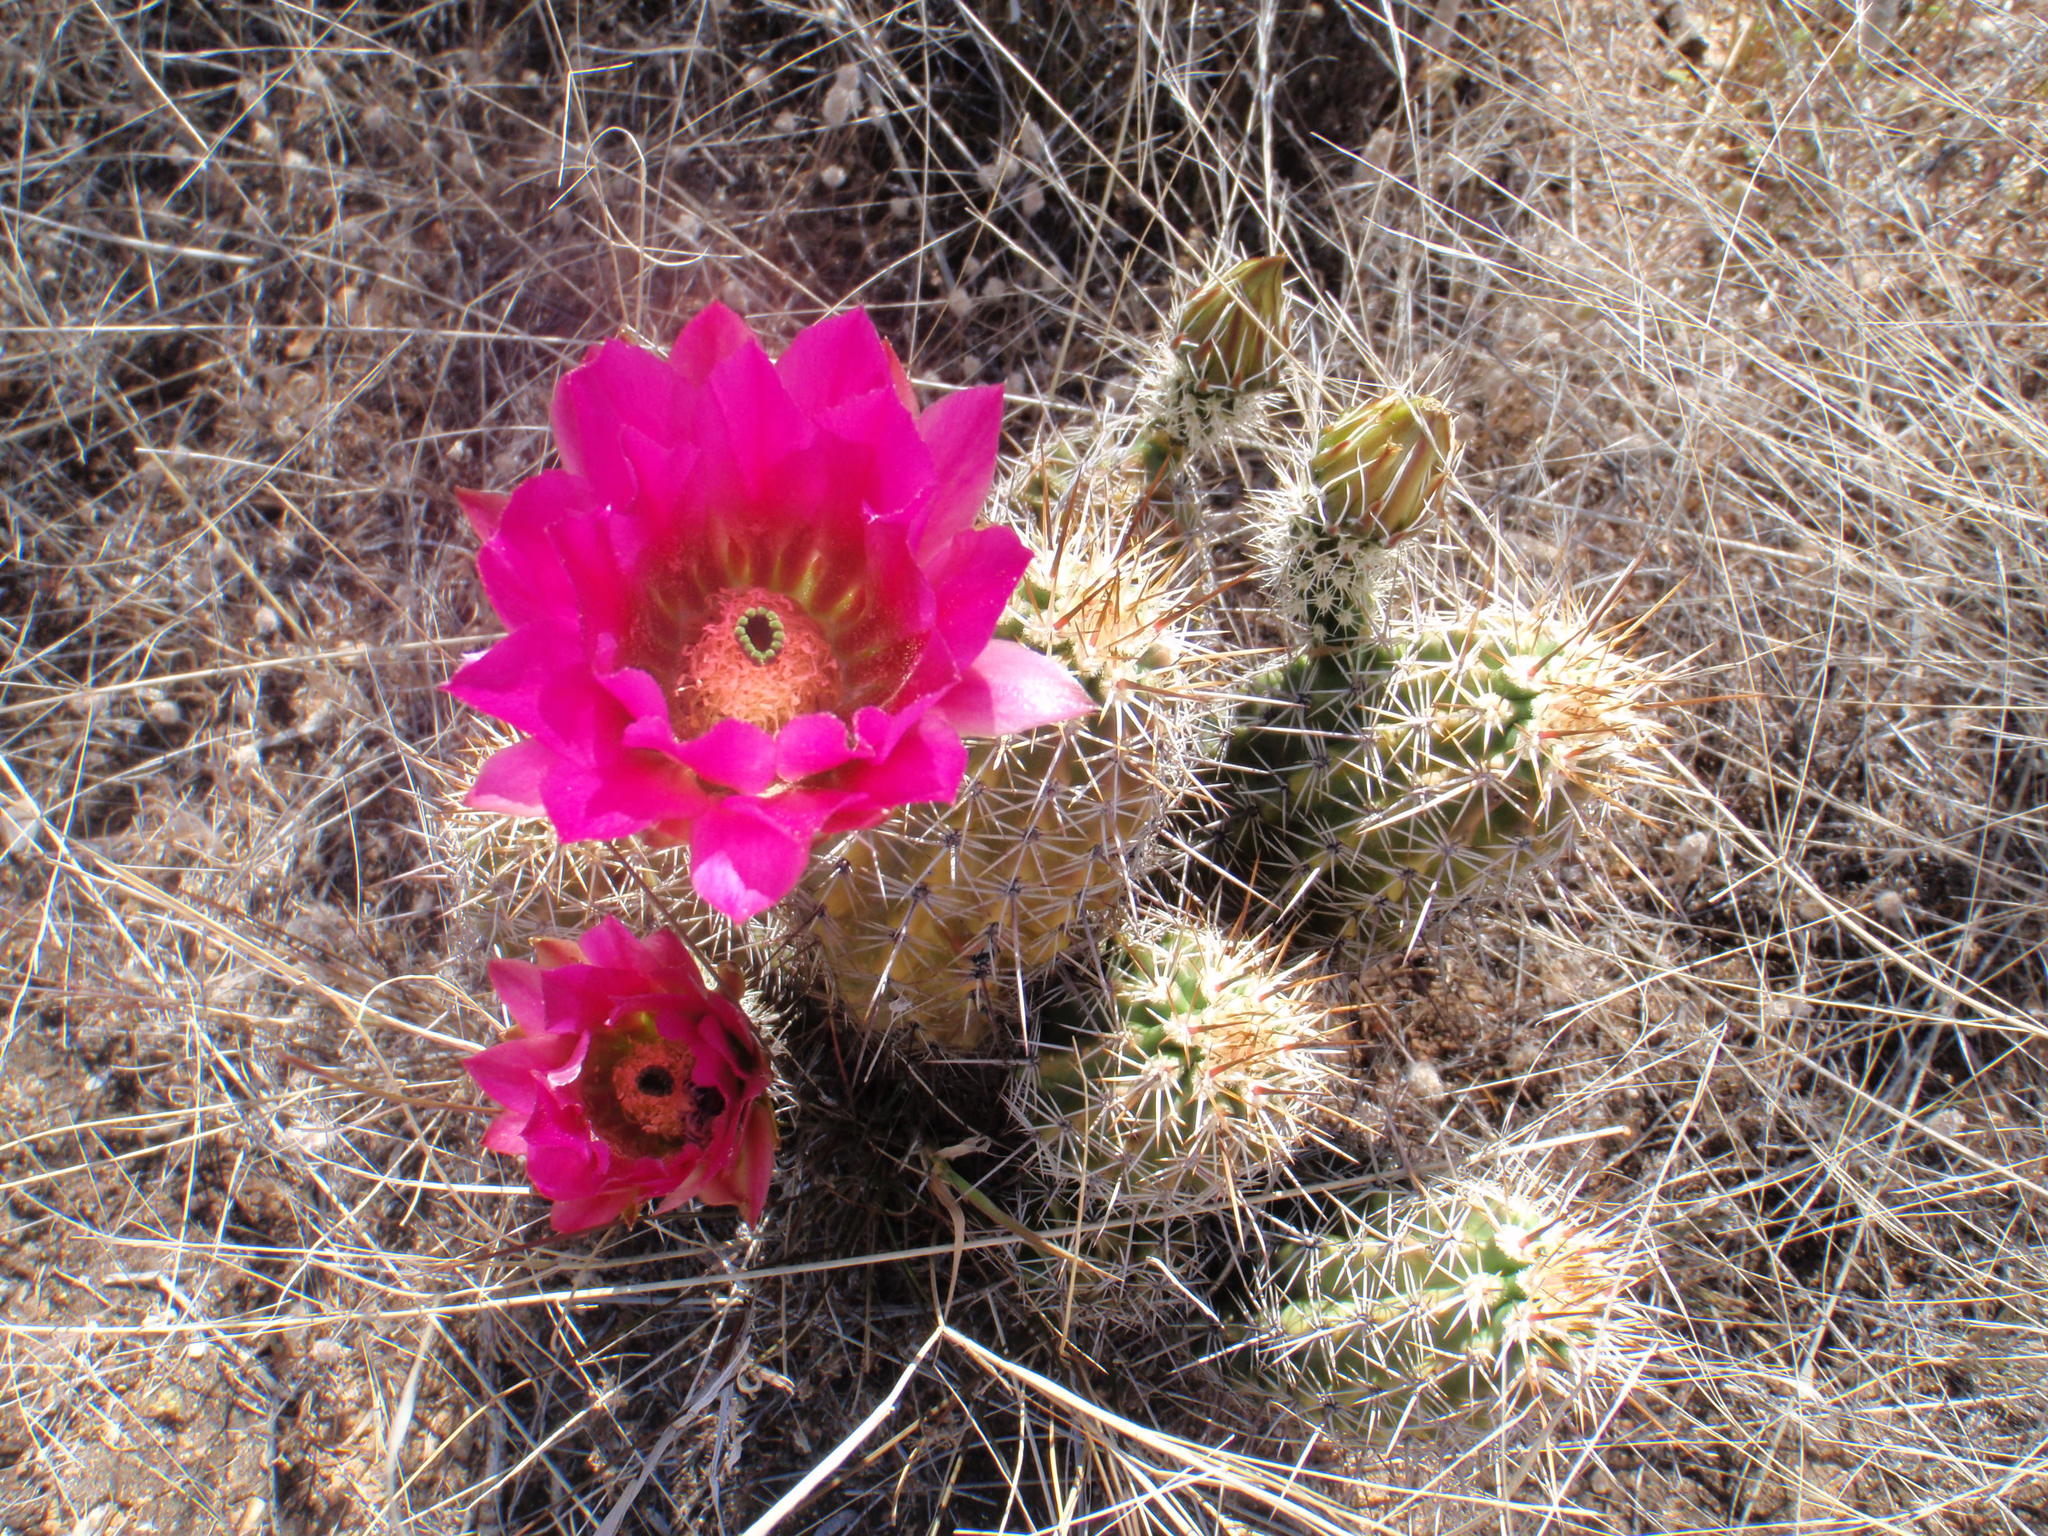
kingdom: Plantae
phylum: Tracheophyta
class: Magnoliopsida
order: Caryophyllales
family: Cactaceae
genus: Echinocereus
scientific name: Echinocereus fasciculatus
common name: Bundle hedgehog
